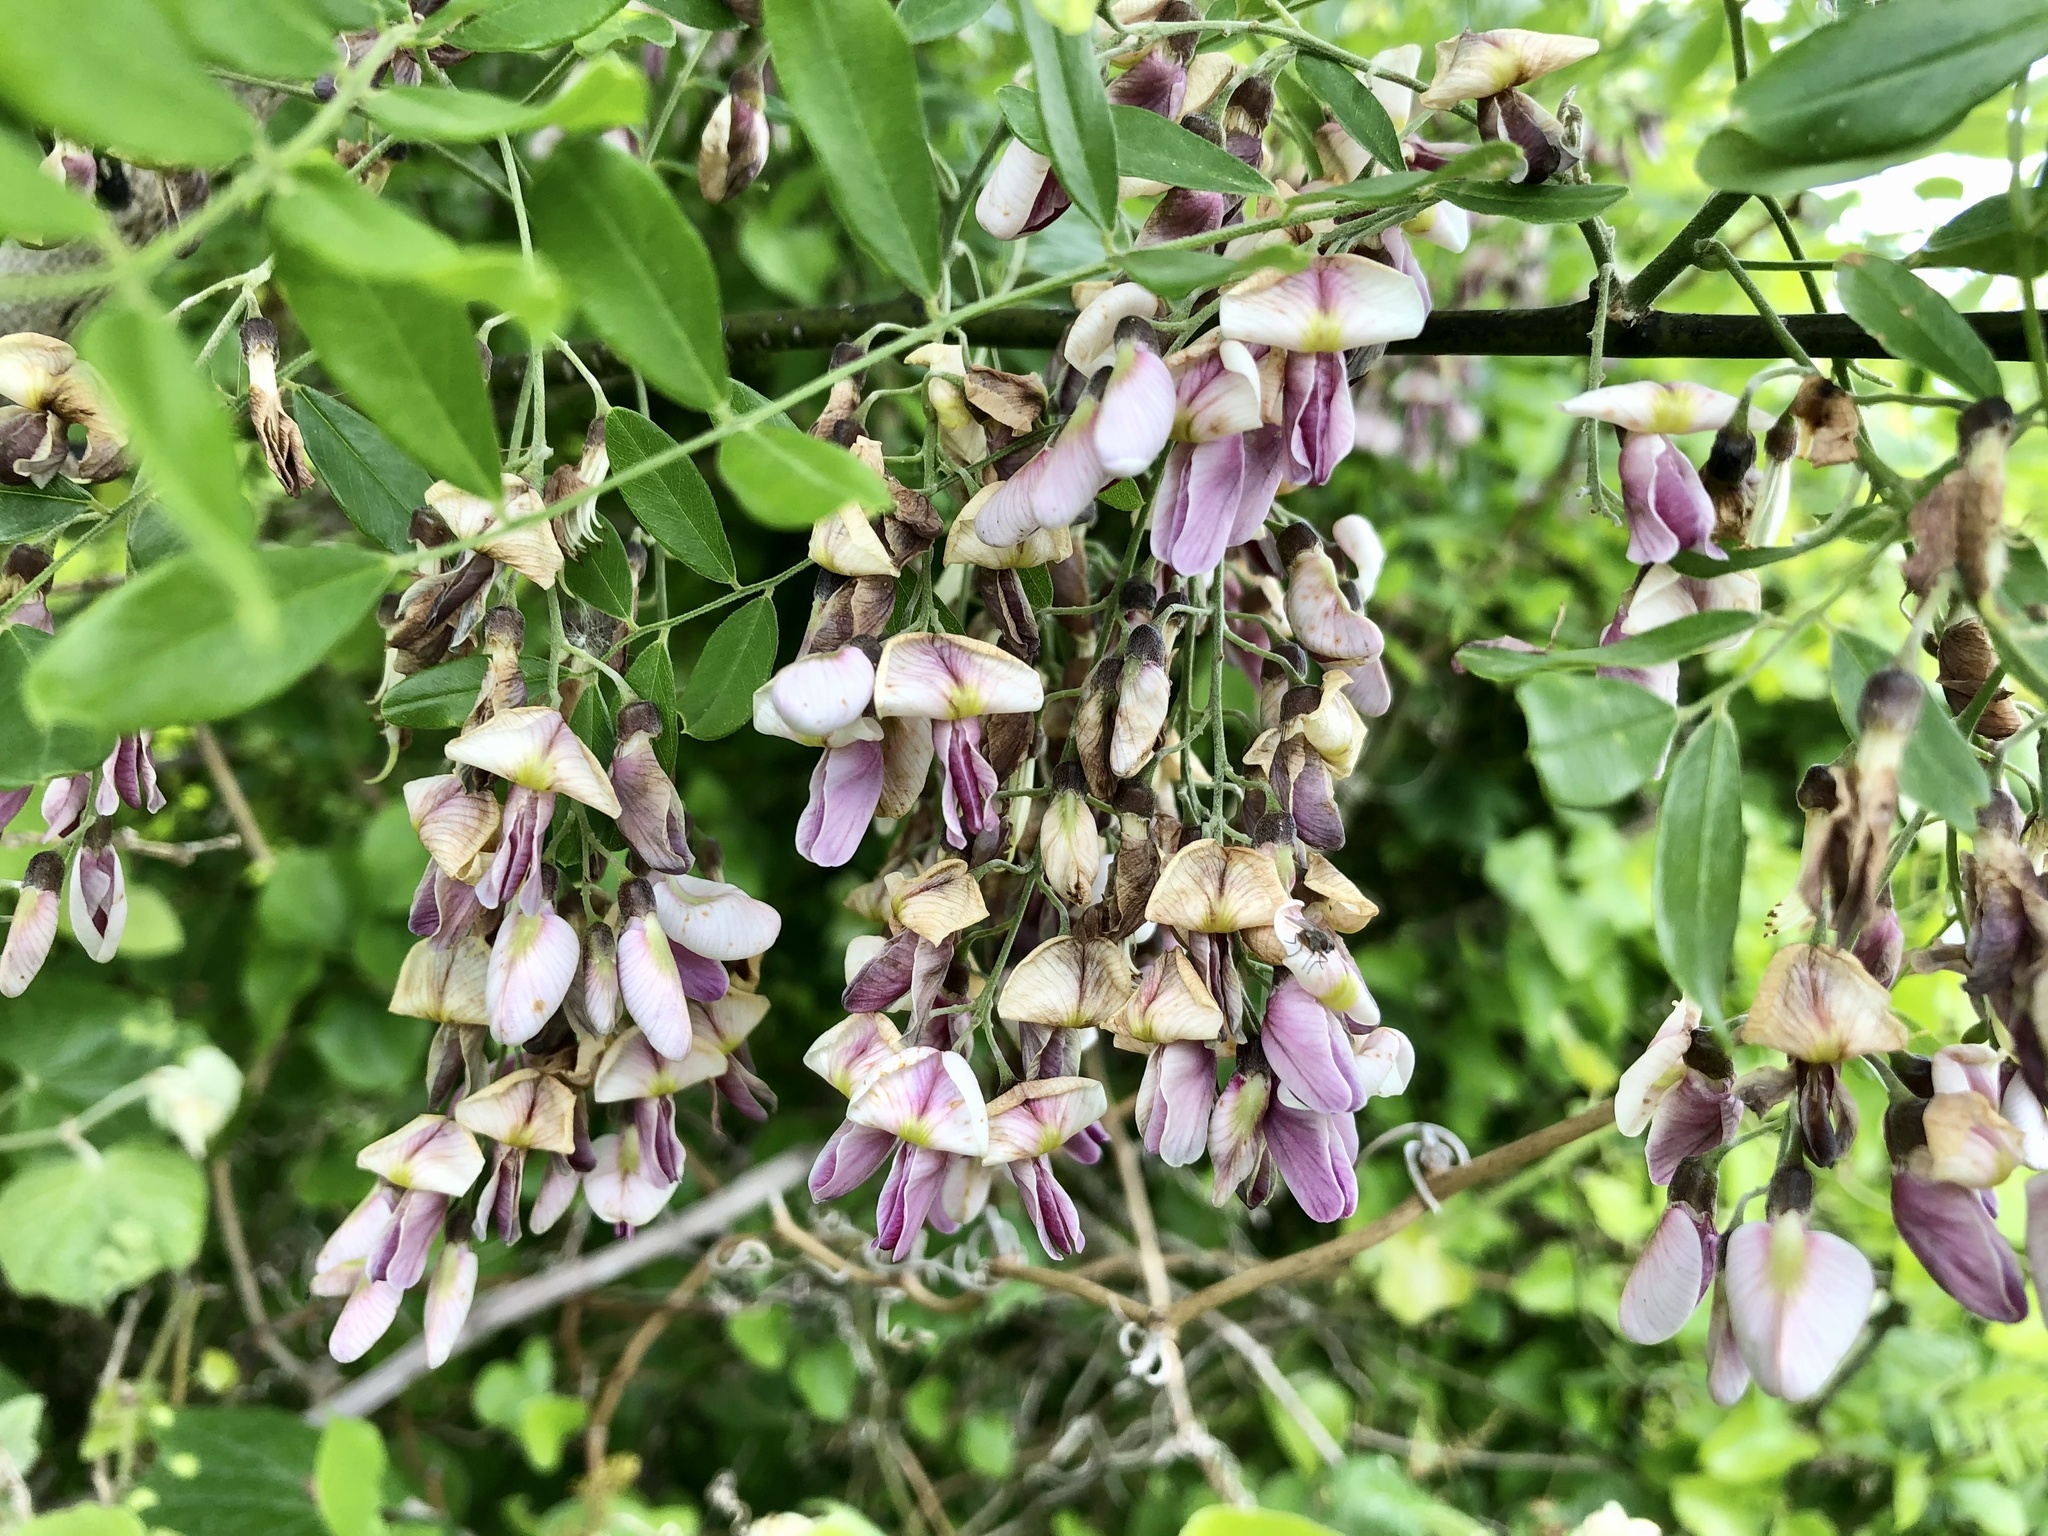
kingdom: Plantae
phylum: Tracheophyta
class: Magnoliopsida
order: Fabales
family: Fabaceae
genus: Styphnolobium
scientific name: Styphnolobium affine
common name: Texas sophora
